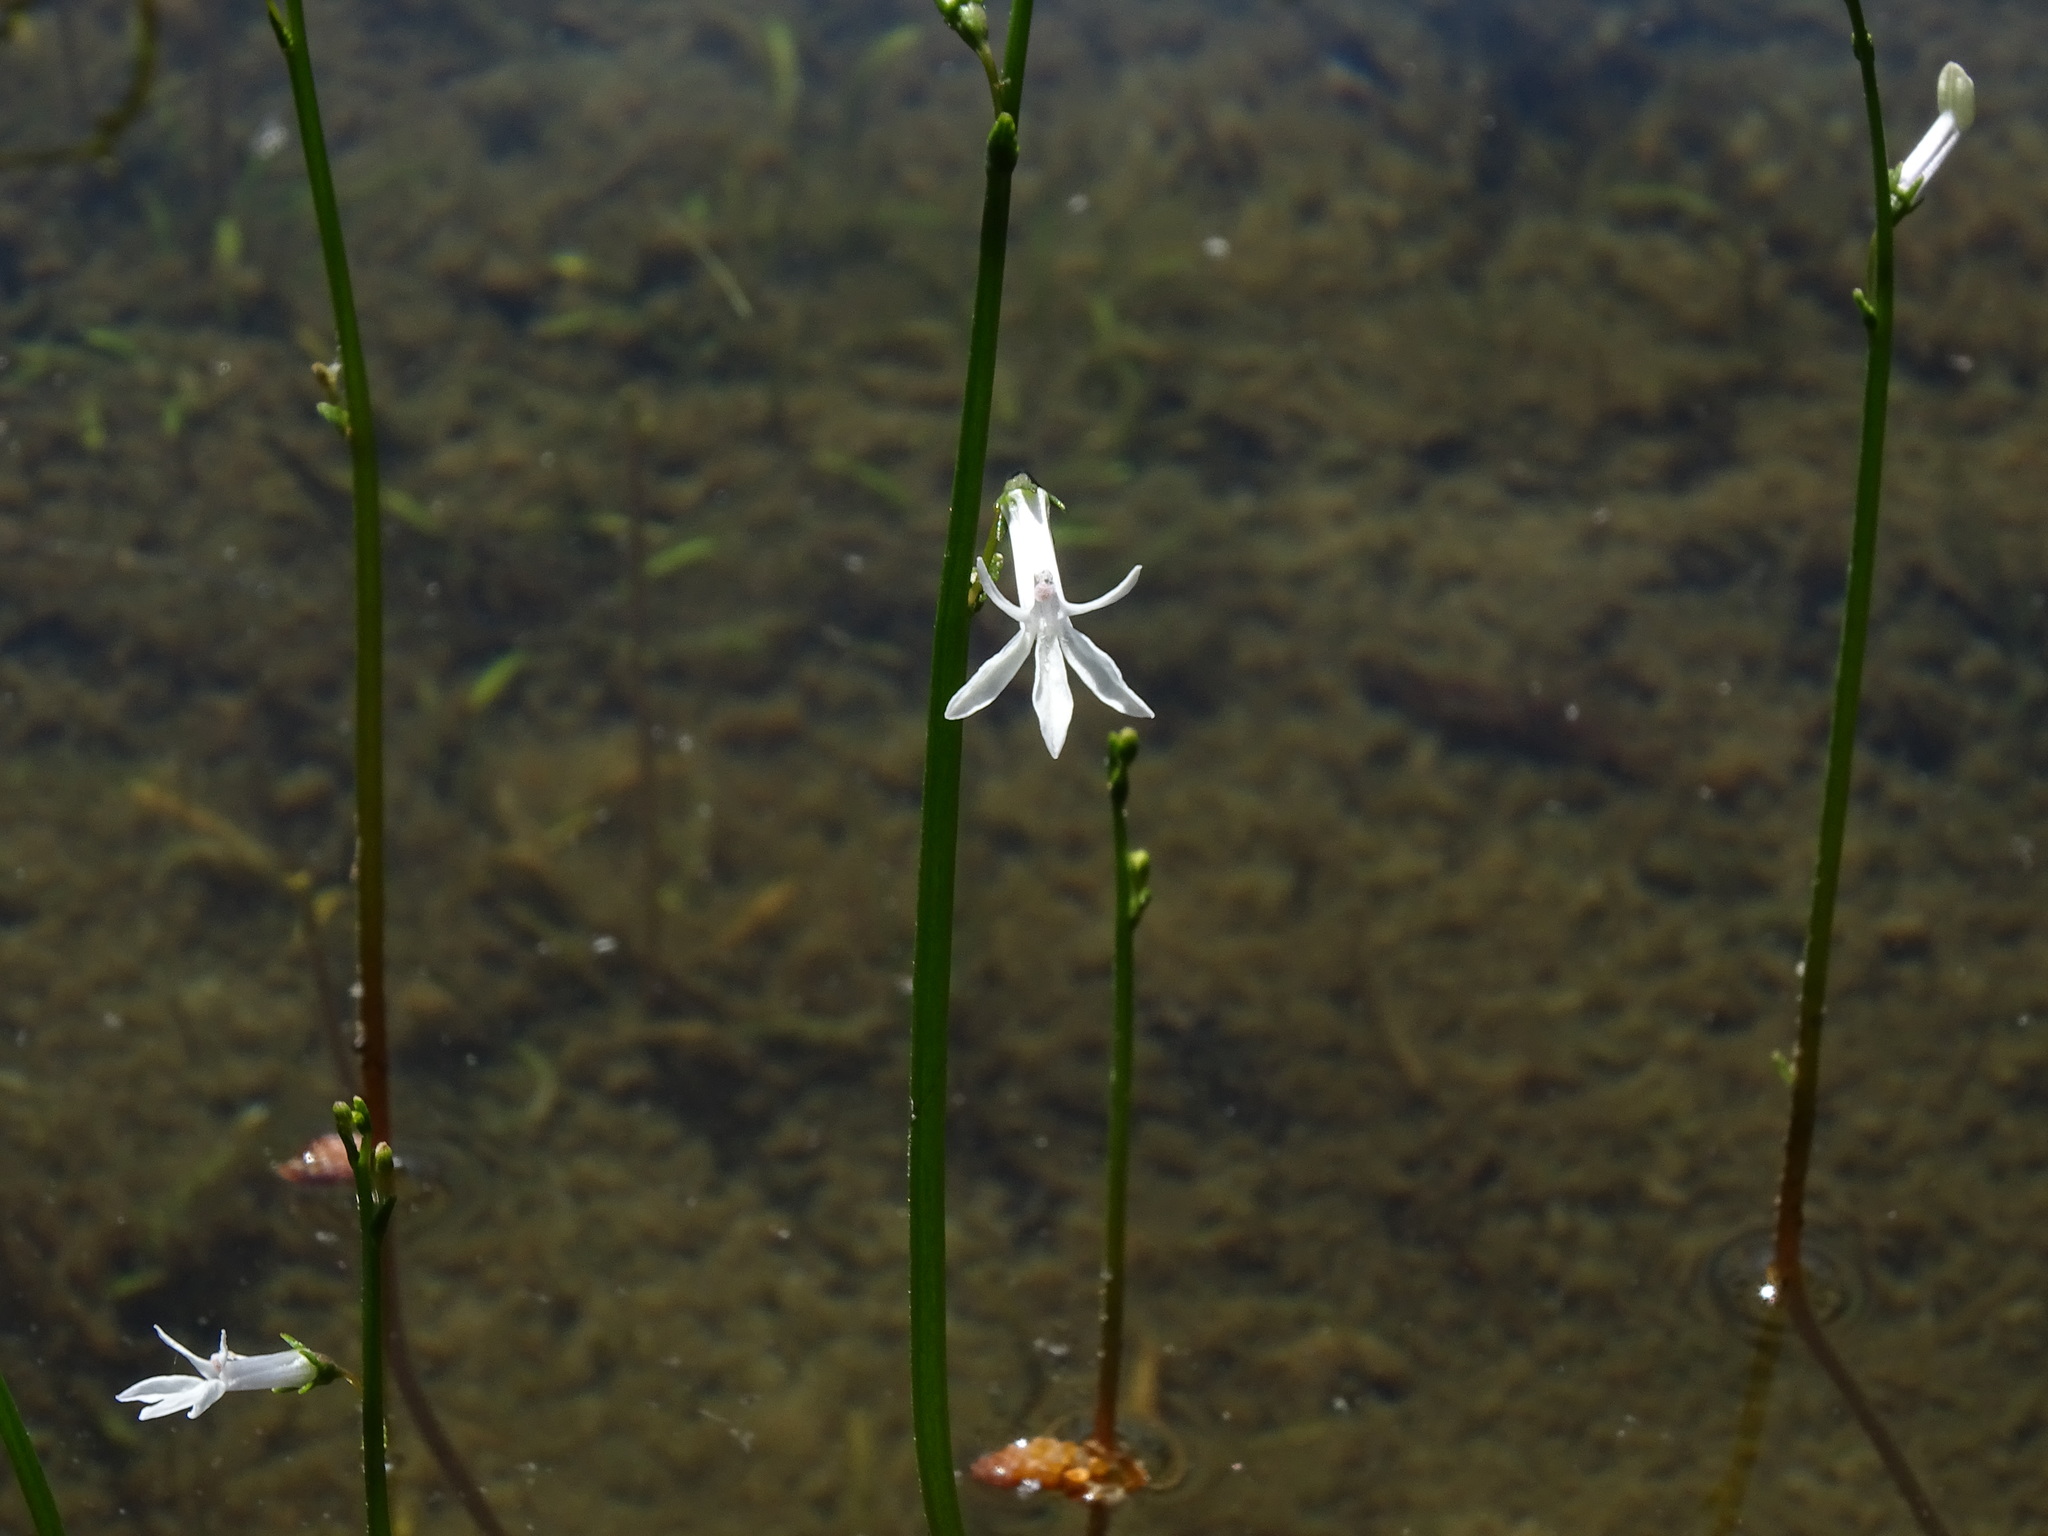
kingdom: Plantae
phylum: Tracheophyta
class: Magnoliopsida
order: Asterales
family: Campanulaceae
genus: Lobelia
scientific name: Lobelia dortmanna
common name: Water lobelia
